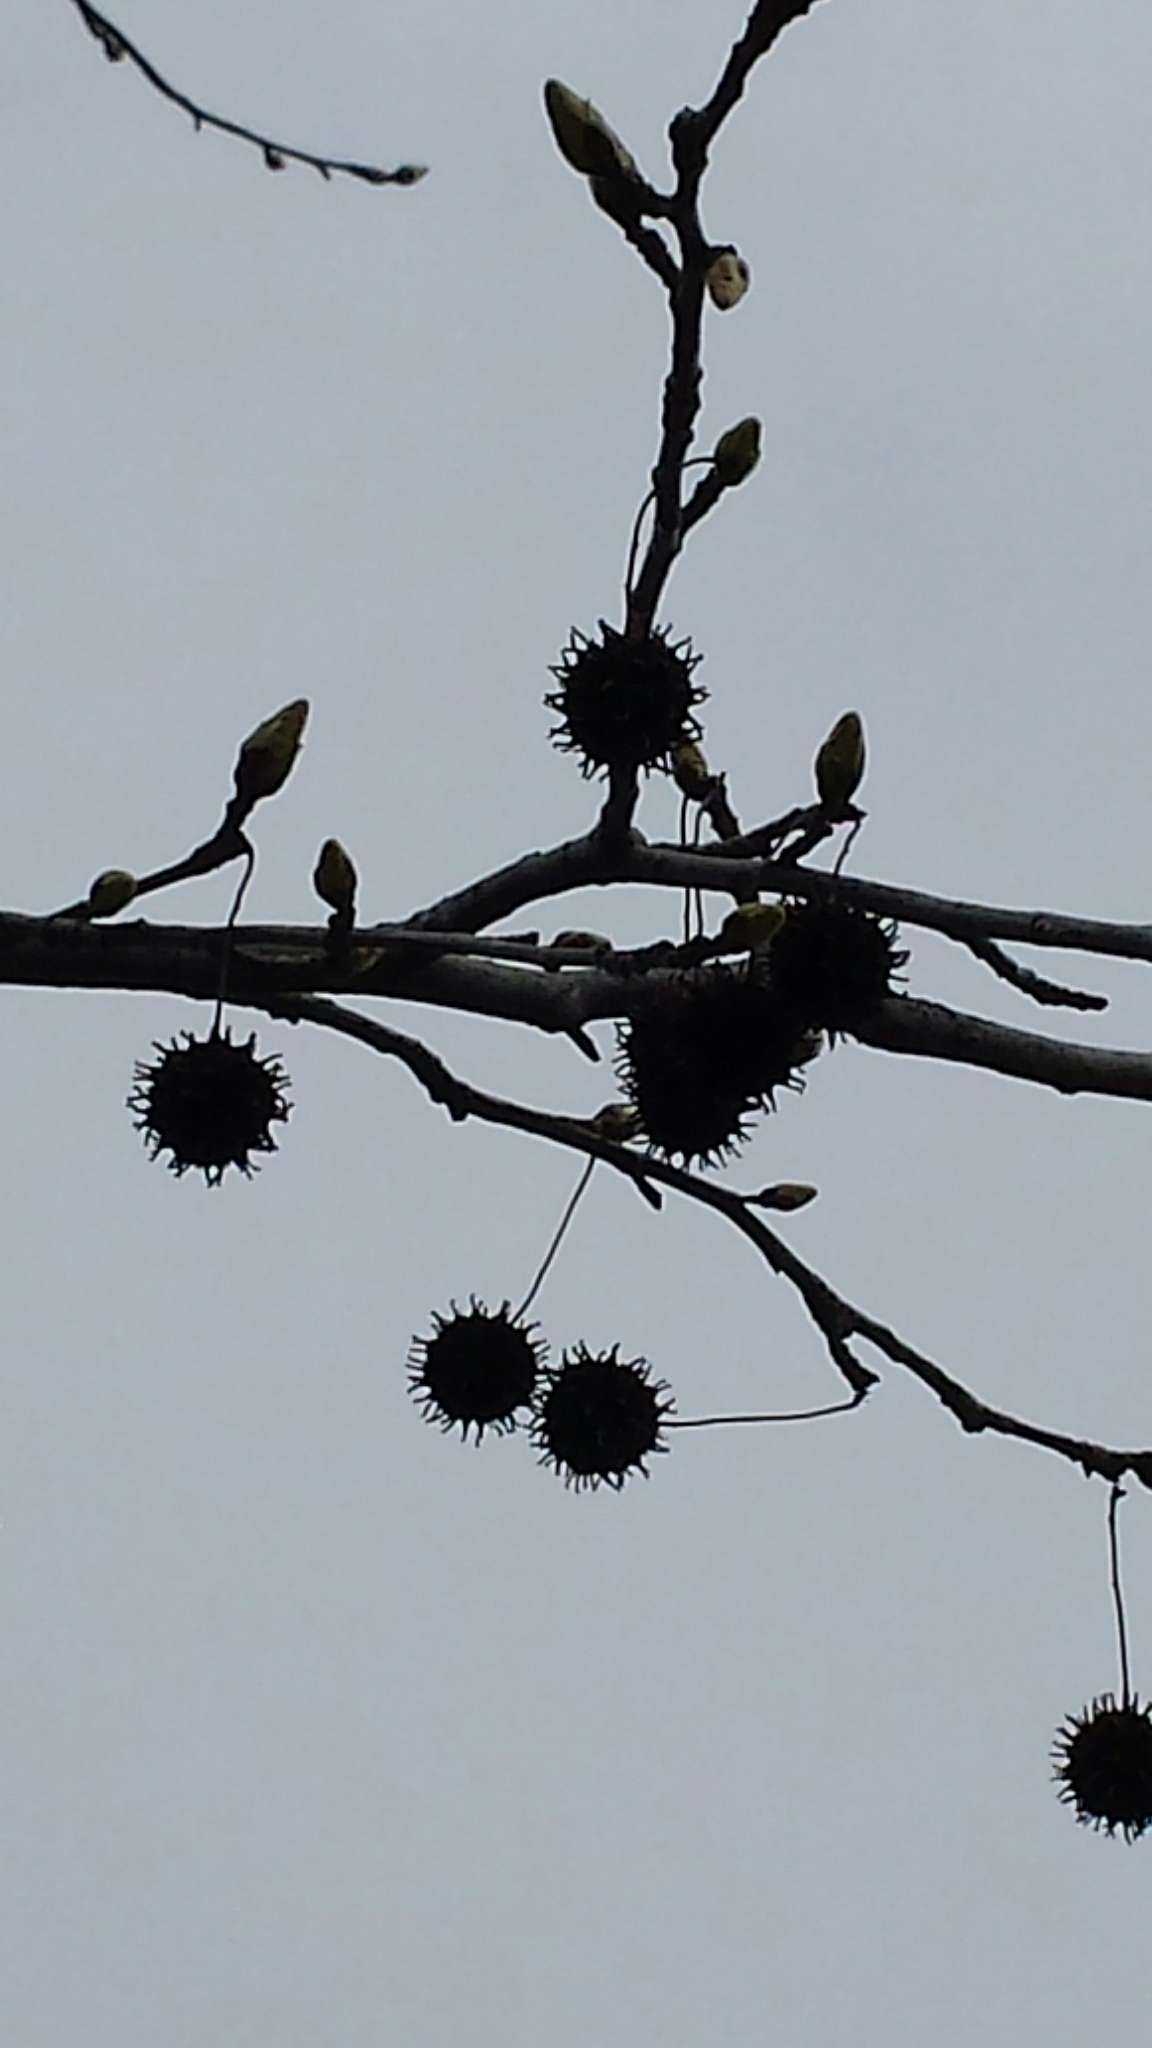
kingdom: Plantae
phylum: Tracheophyta
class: Magnoliopsida
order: Saxifragales
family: Altingiaceae
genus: Liquidambar
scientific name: Liquidambar styraciflua
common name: Sweet gum
